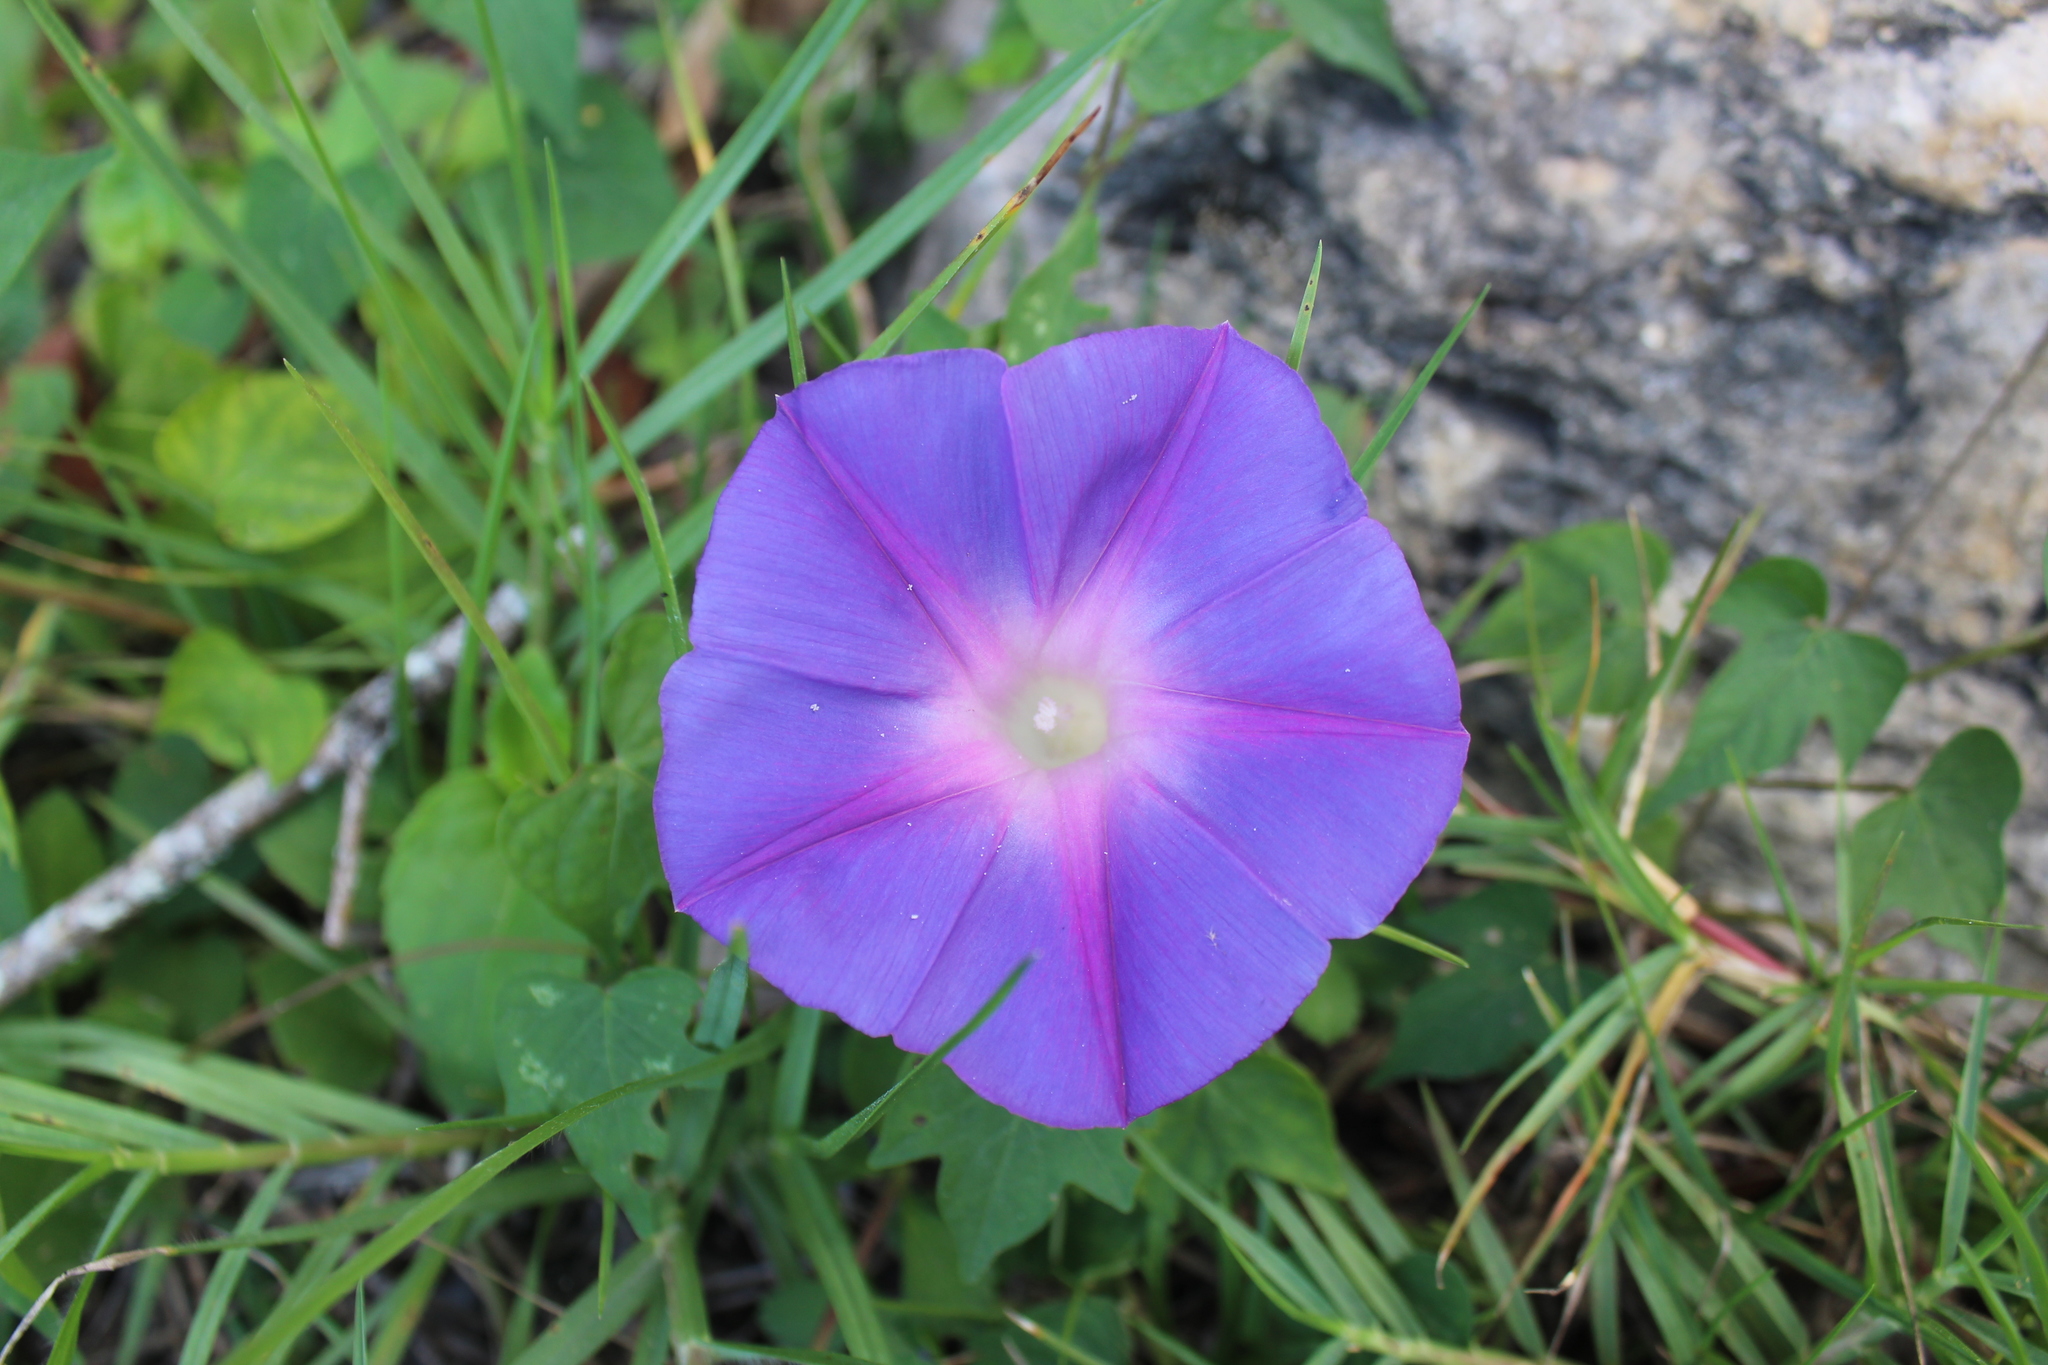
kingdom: Plantae
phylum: Tracheophyta
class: Magnoliopsida
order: Solanales
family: Convolvulaceae
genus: Ipomoea
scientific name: Ipomoea indica
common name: Blue dawnflower
